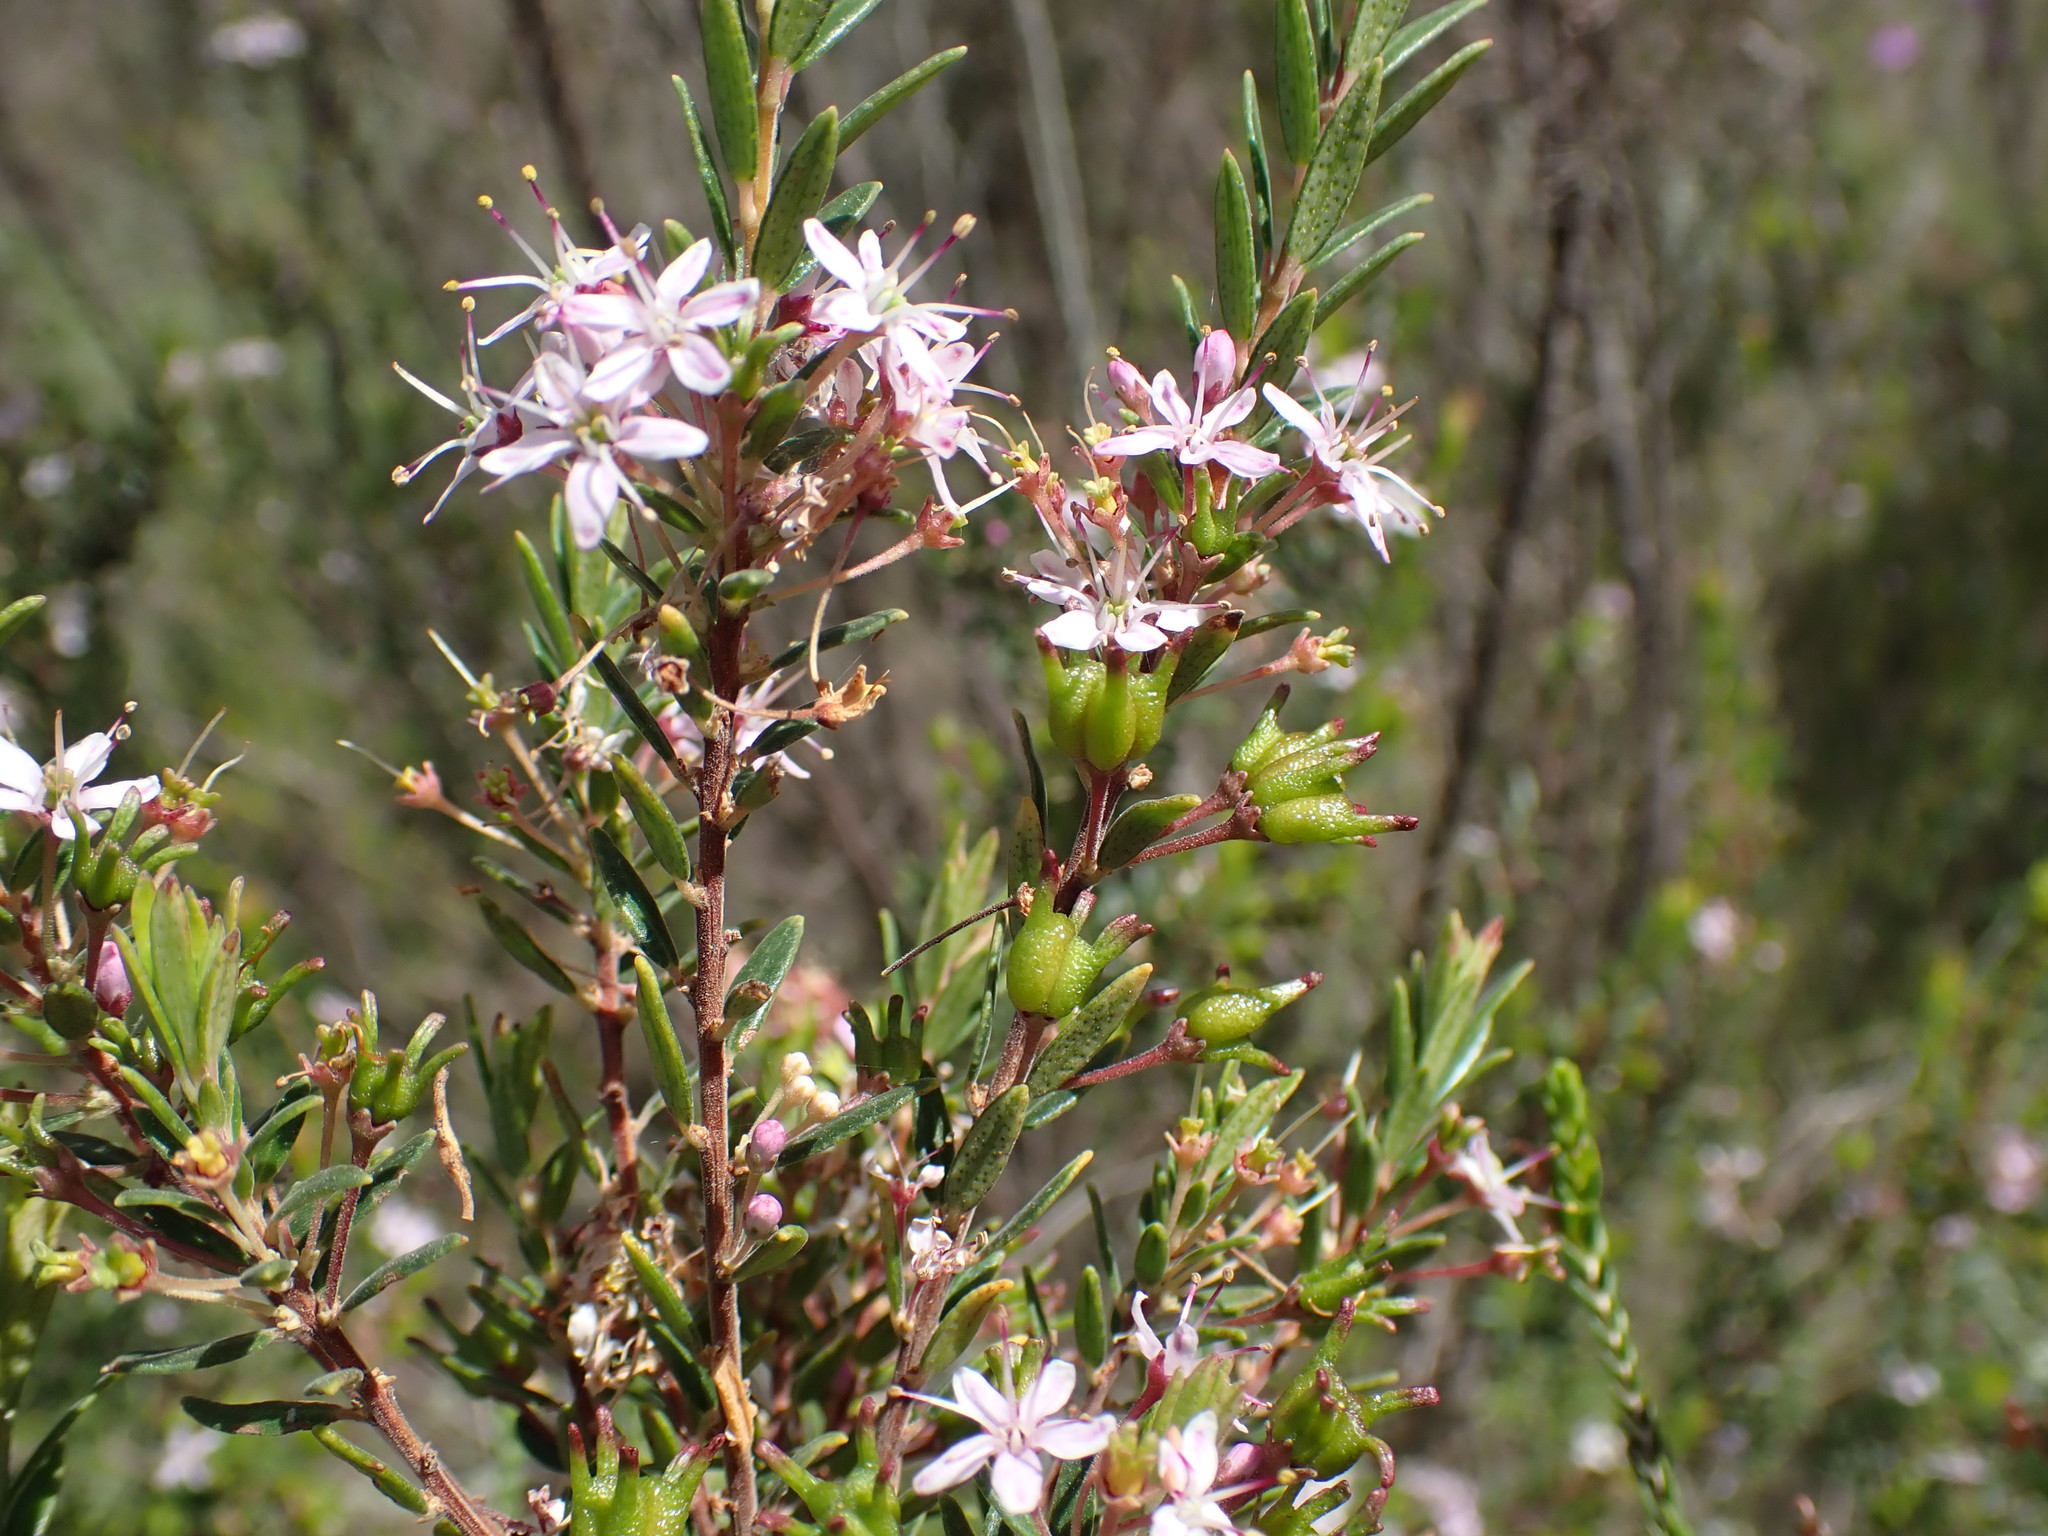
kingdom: Plantae
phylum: Tracheophyta
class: Magnoliopsida
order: Sapindales
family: Rutaceae
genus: Agathosma
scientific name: Agathosma ovata
